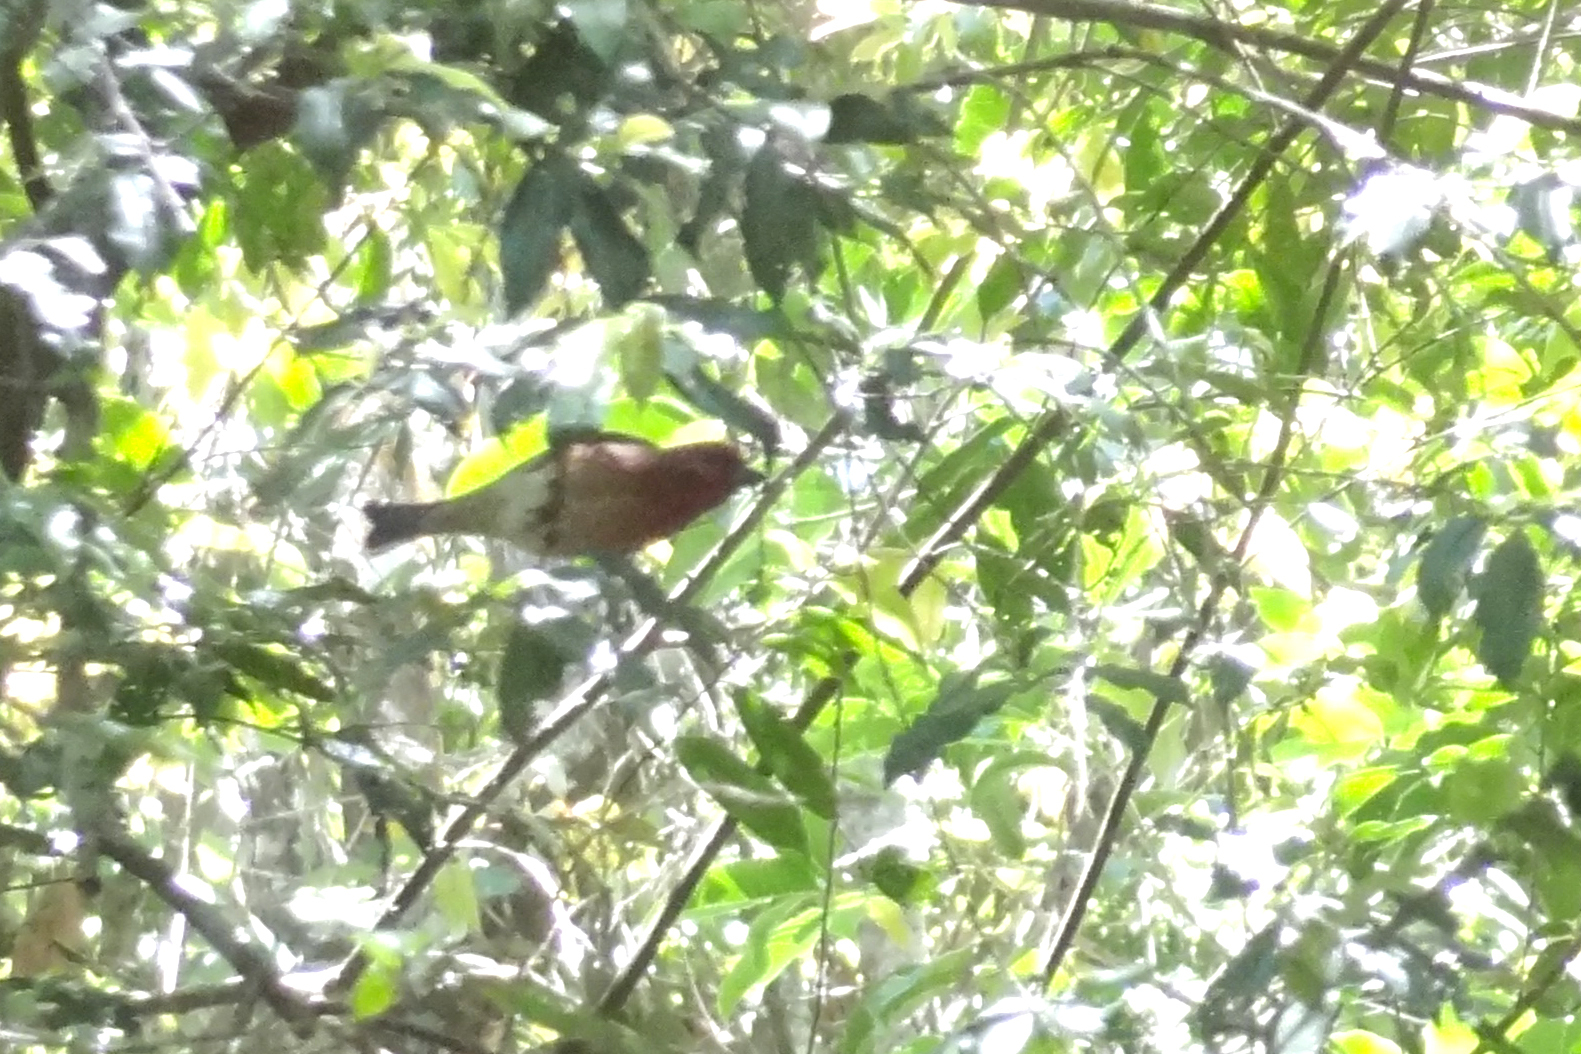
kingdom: Animalia
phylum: Chordata
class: Aves
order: Passeriformes
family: Fringillidae
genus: Carpodacus
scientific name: Carpodacus erythrinus
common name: Common rosefinch
